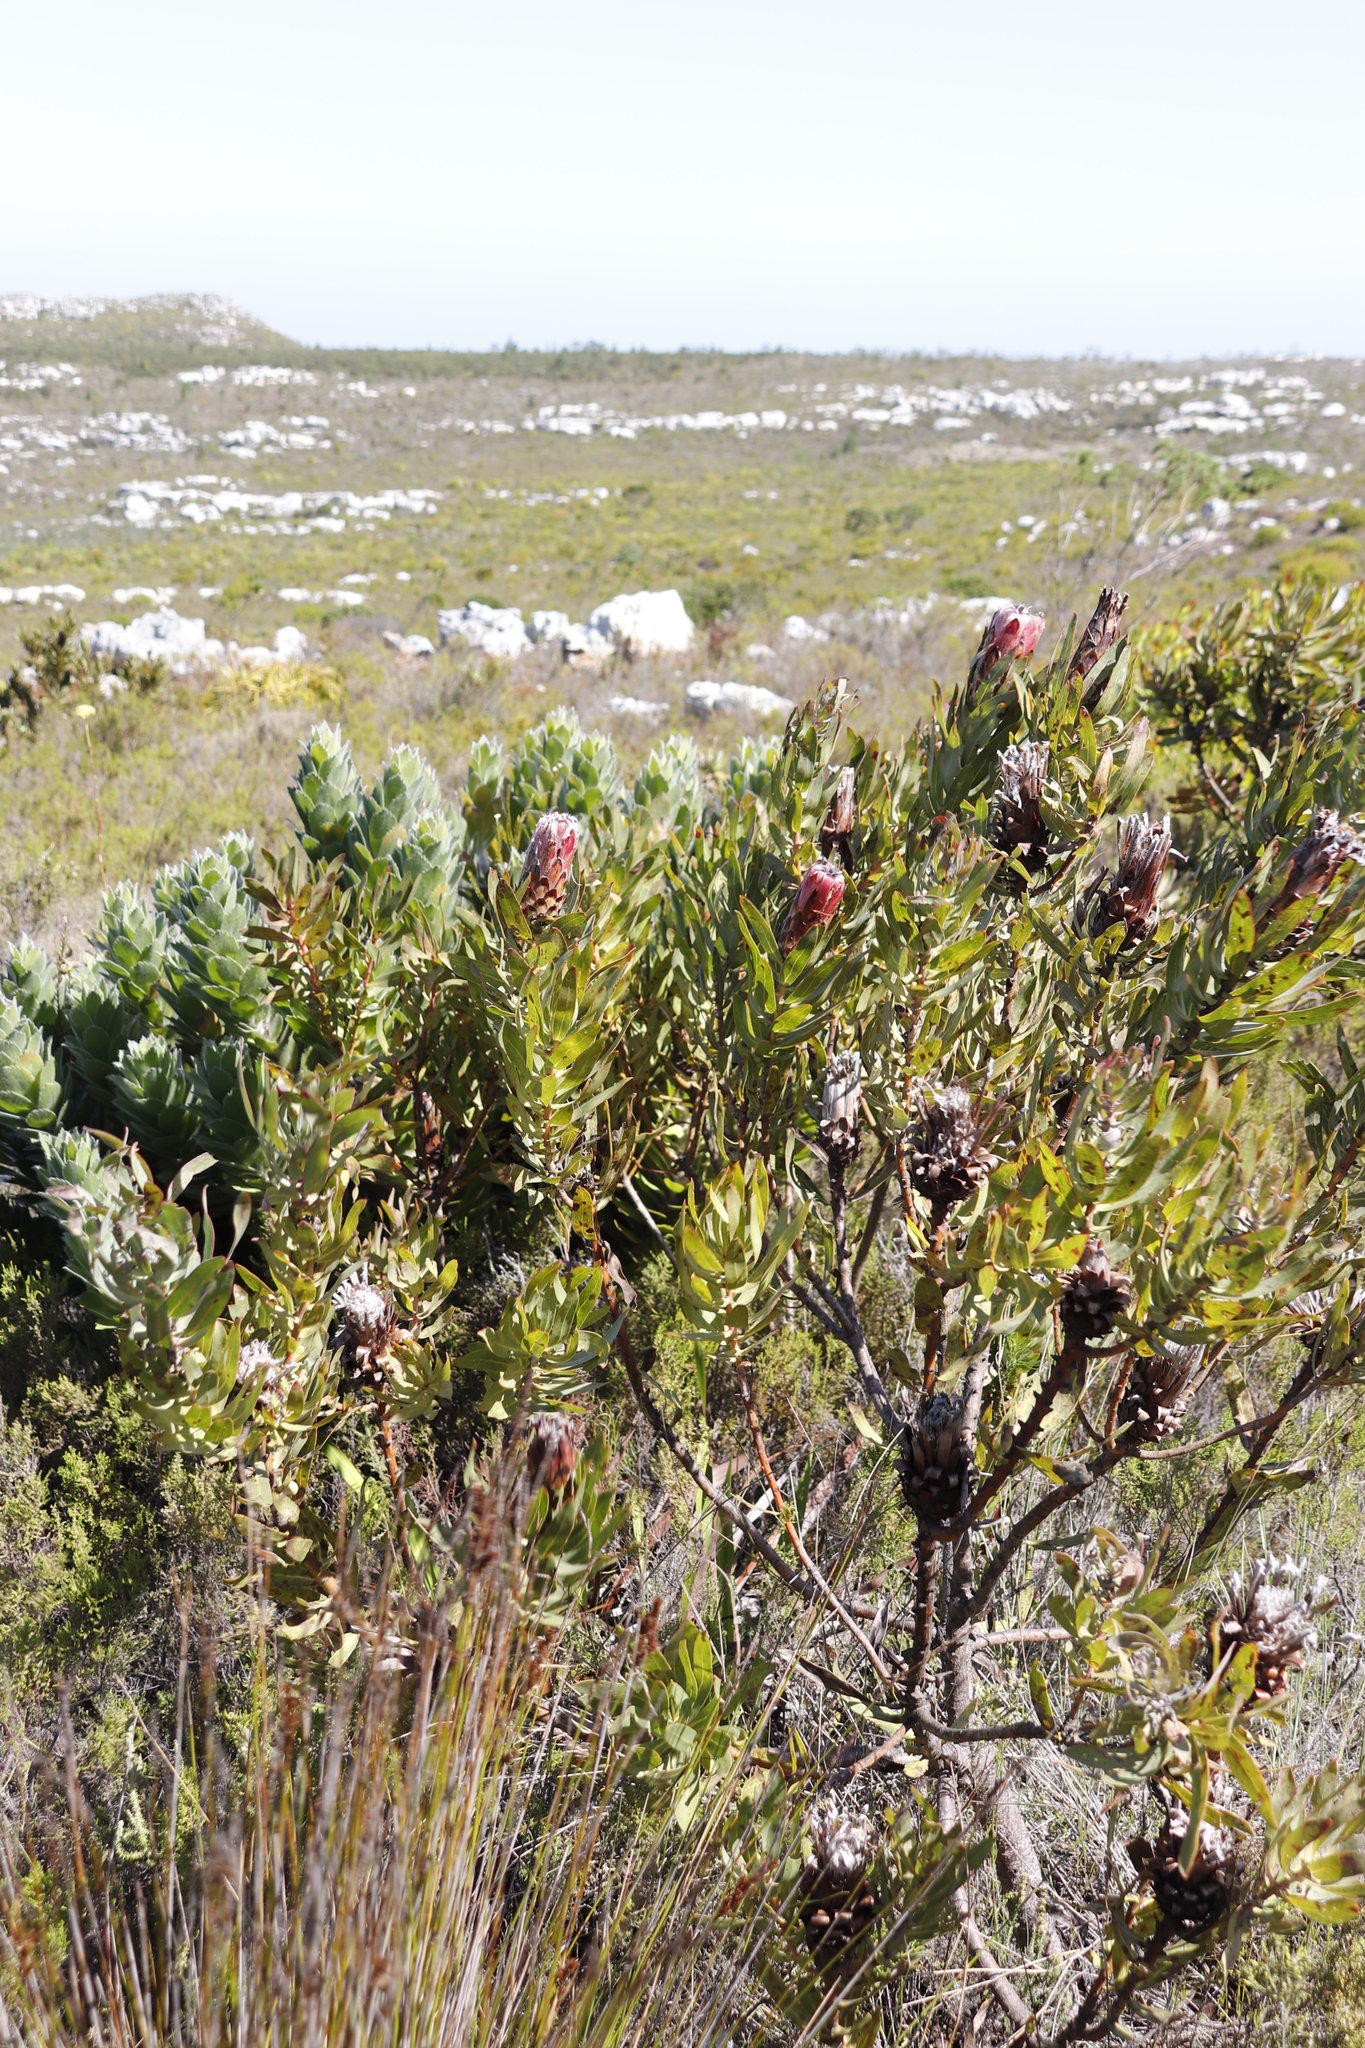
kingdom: Plantae
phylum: Tracheophyta
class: Magnoliopsida
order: Proteales
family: Proteaceae
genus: Protea
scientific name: Protea
